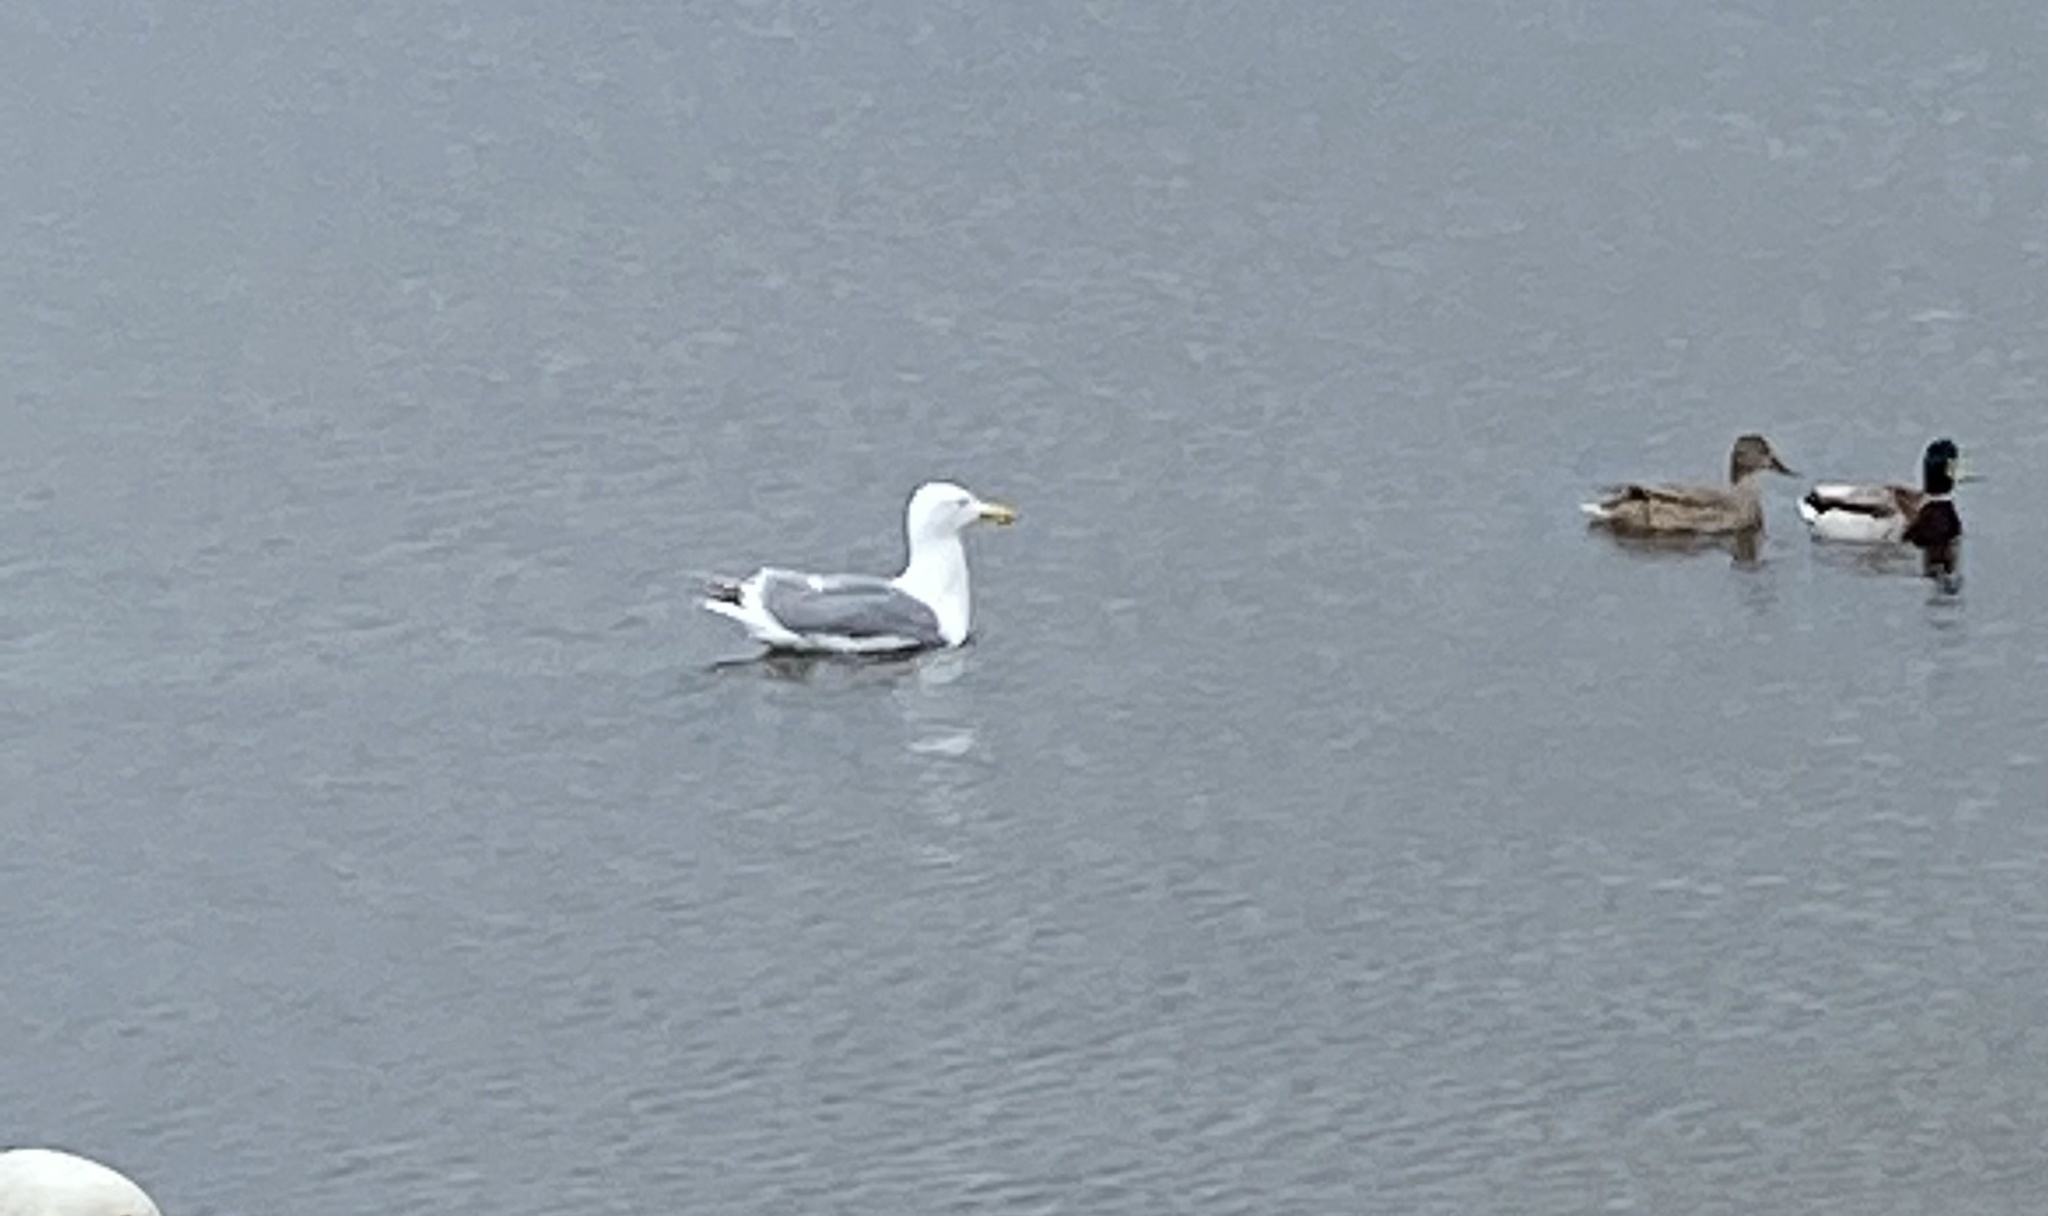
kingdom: Animalia
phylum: Chordata
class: Aves
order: Charadriiformes
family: Laridae
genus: Larus
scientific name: Larus glaucescens
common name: Glaucous-winged gull
